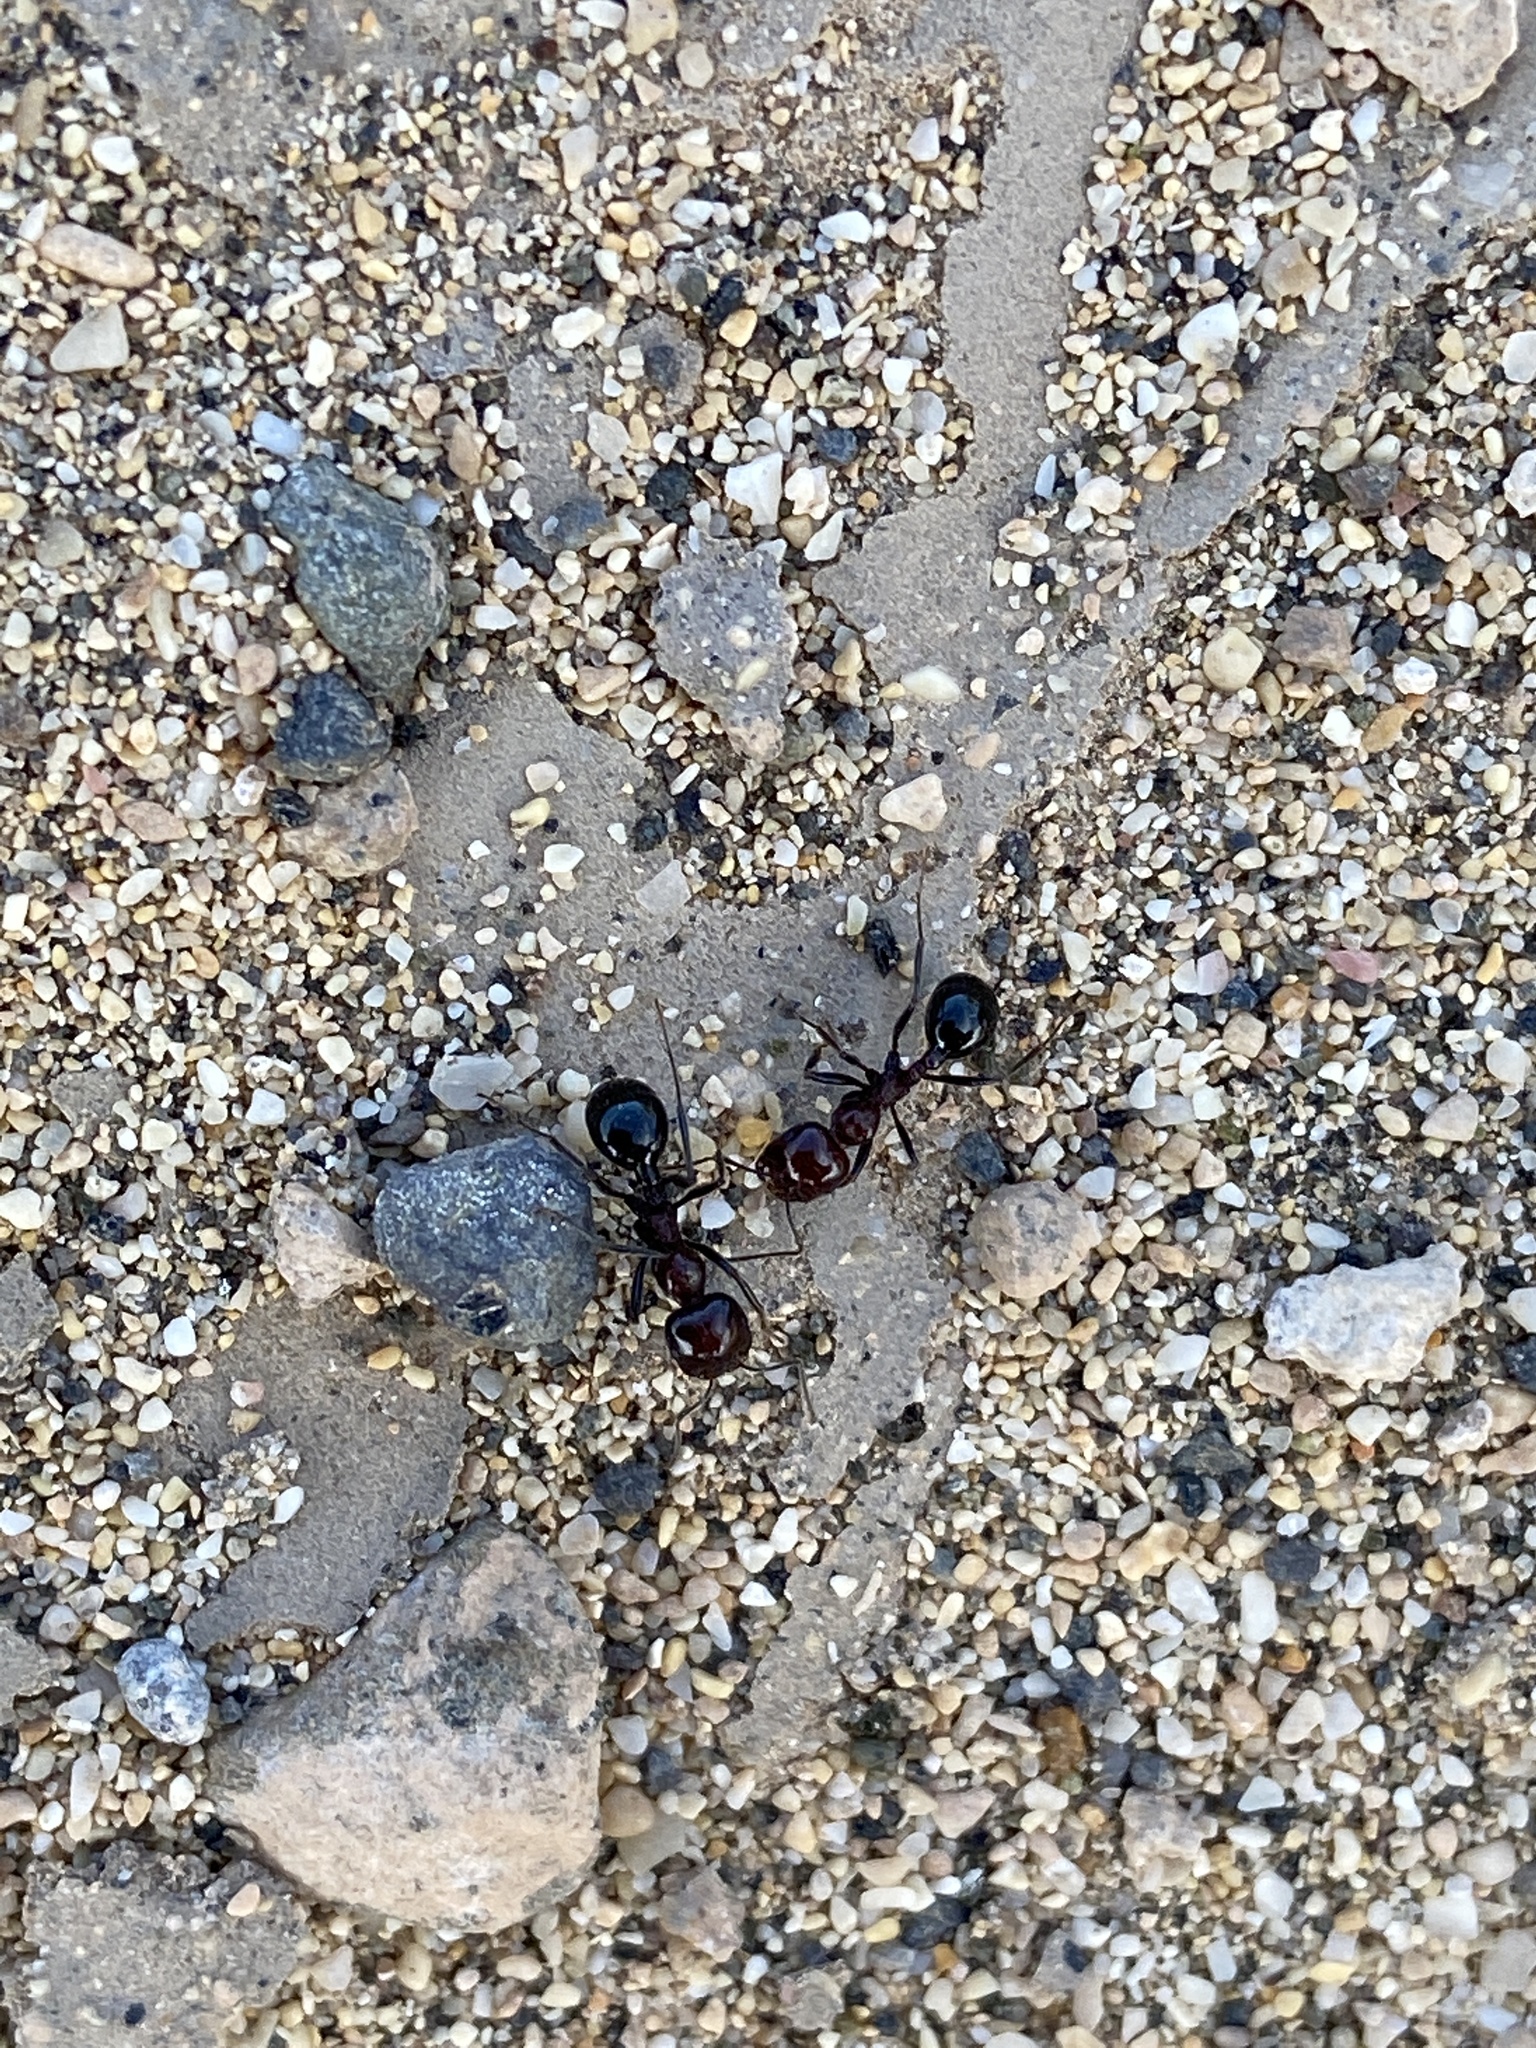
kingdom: Animalia
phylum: Arthropoda
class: Insecta
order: Hymenoptera
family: Formicidae
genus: Messor
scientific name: Messor minor
